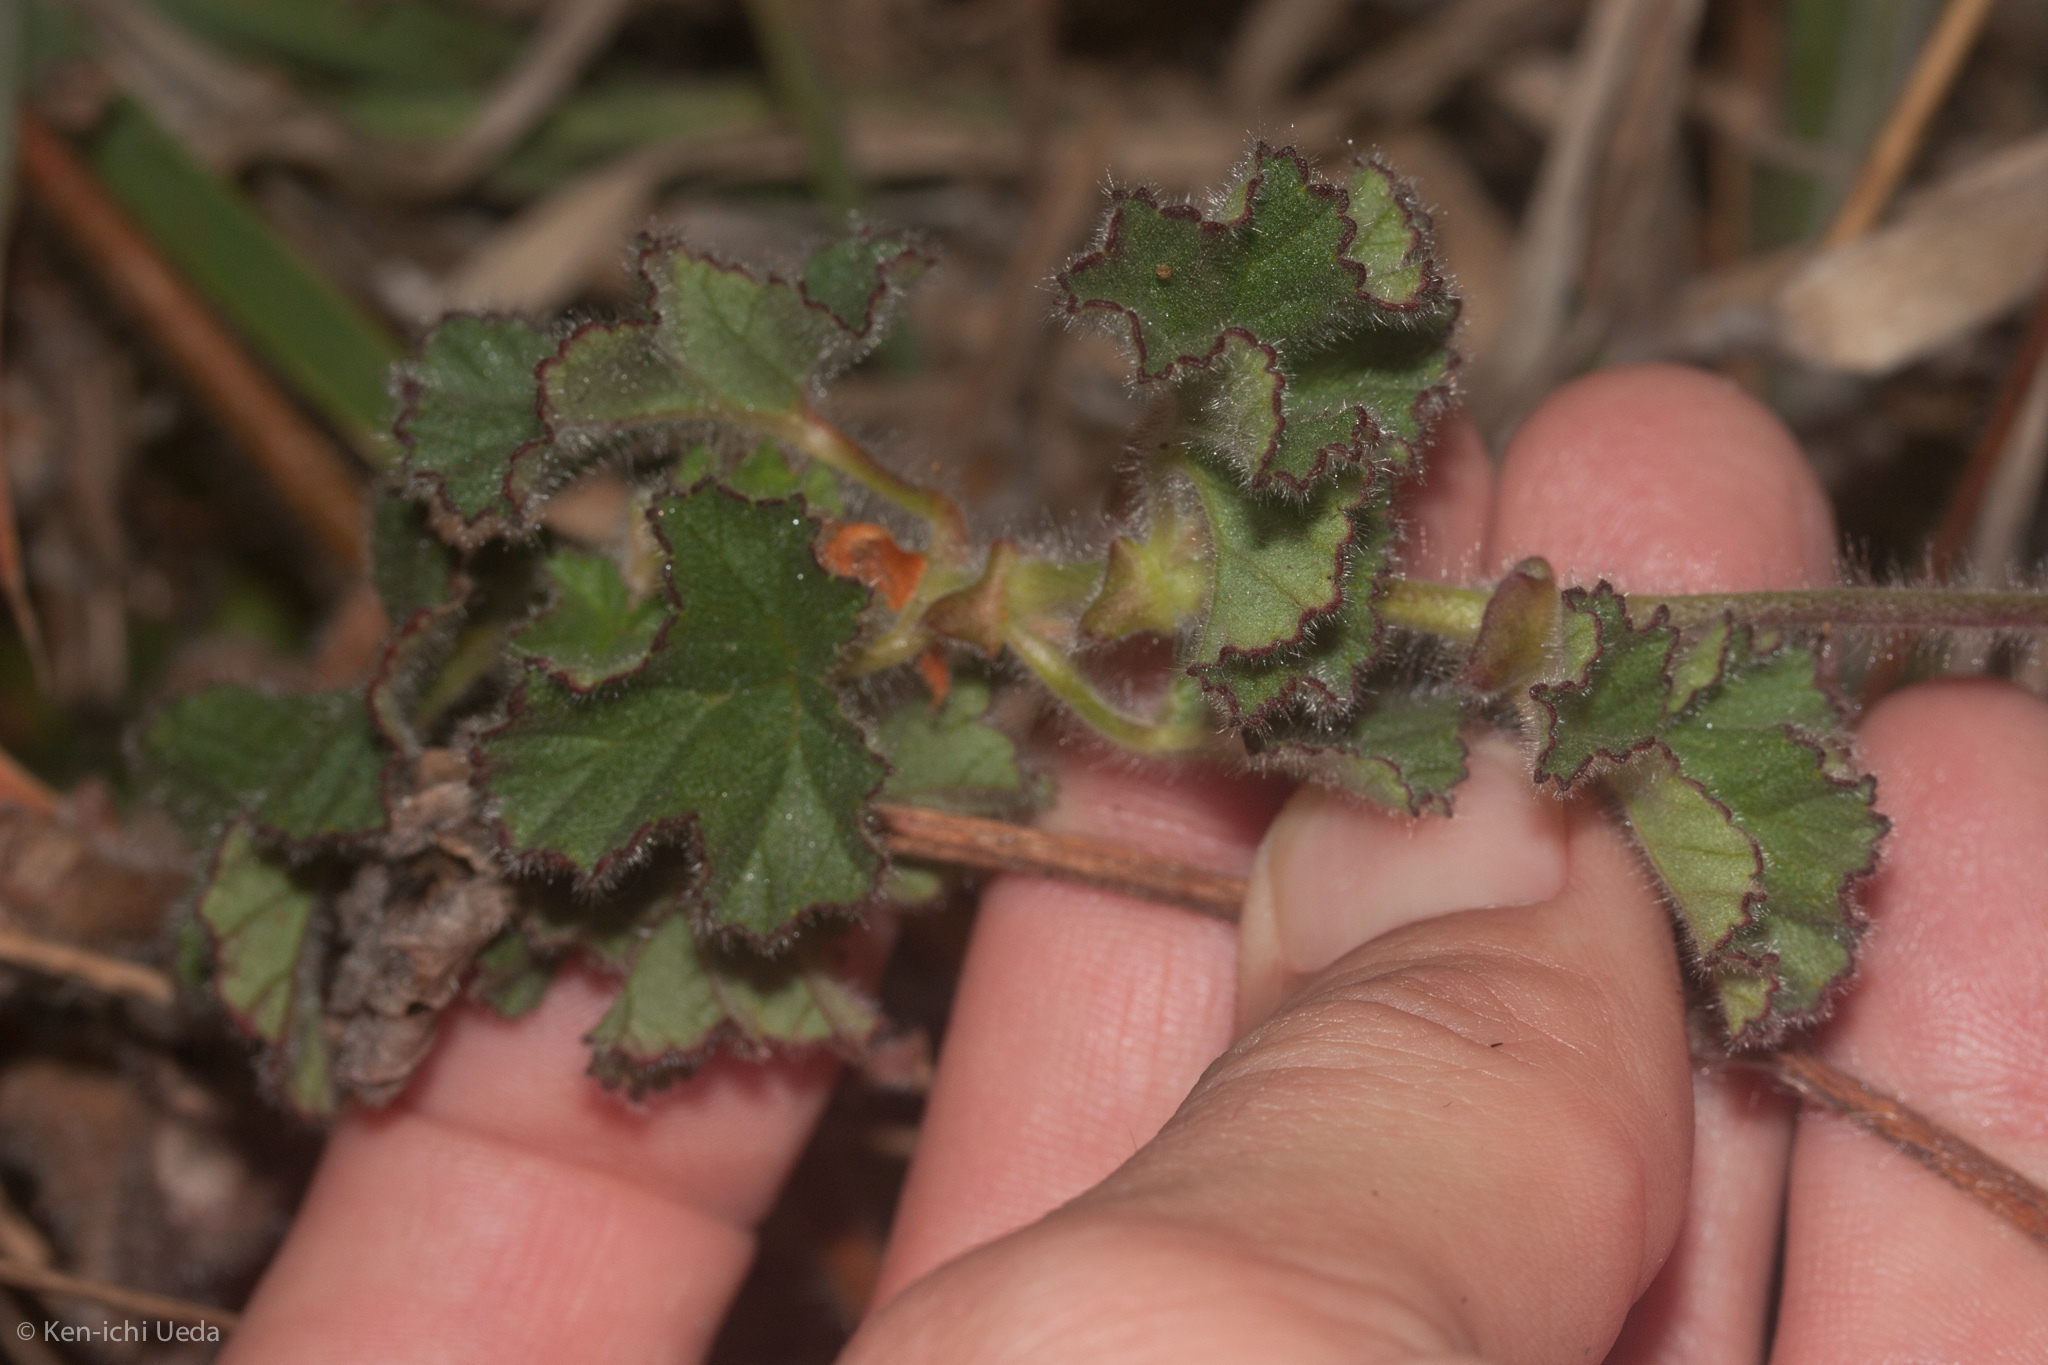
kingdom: Plantae
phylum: Tracheophyta
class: Magnoliopsida
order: Geraniales
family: Geraniaceae
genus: Pelargonium
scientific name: Pelargonium capitatum
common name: Rose scented geranium
